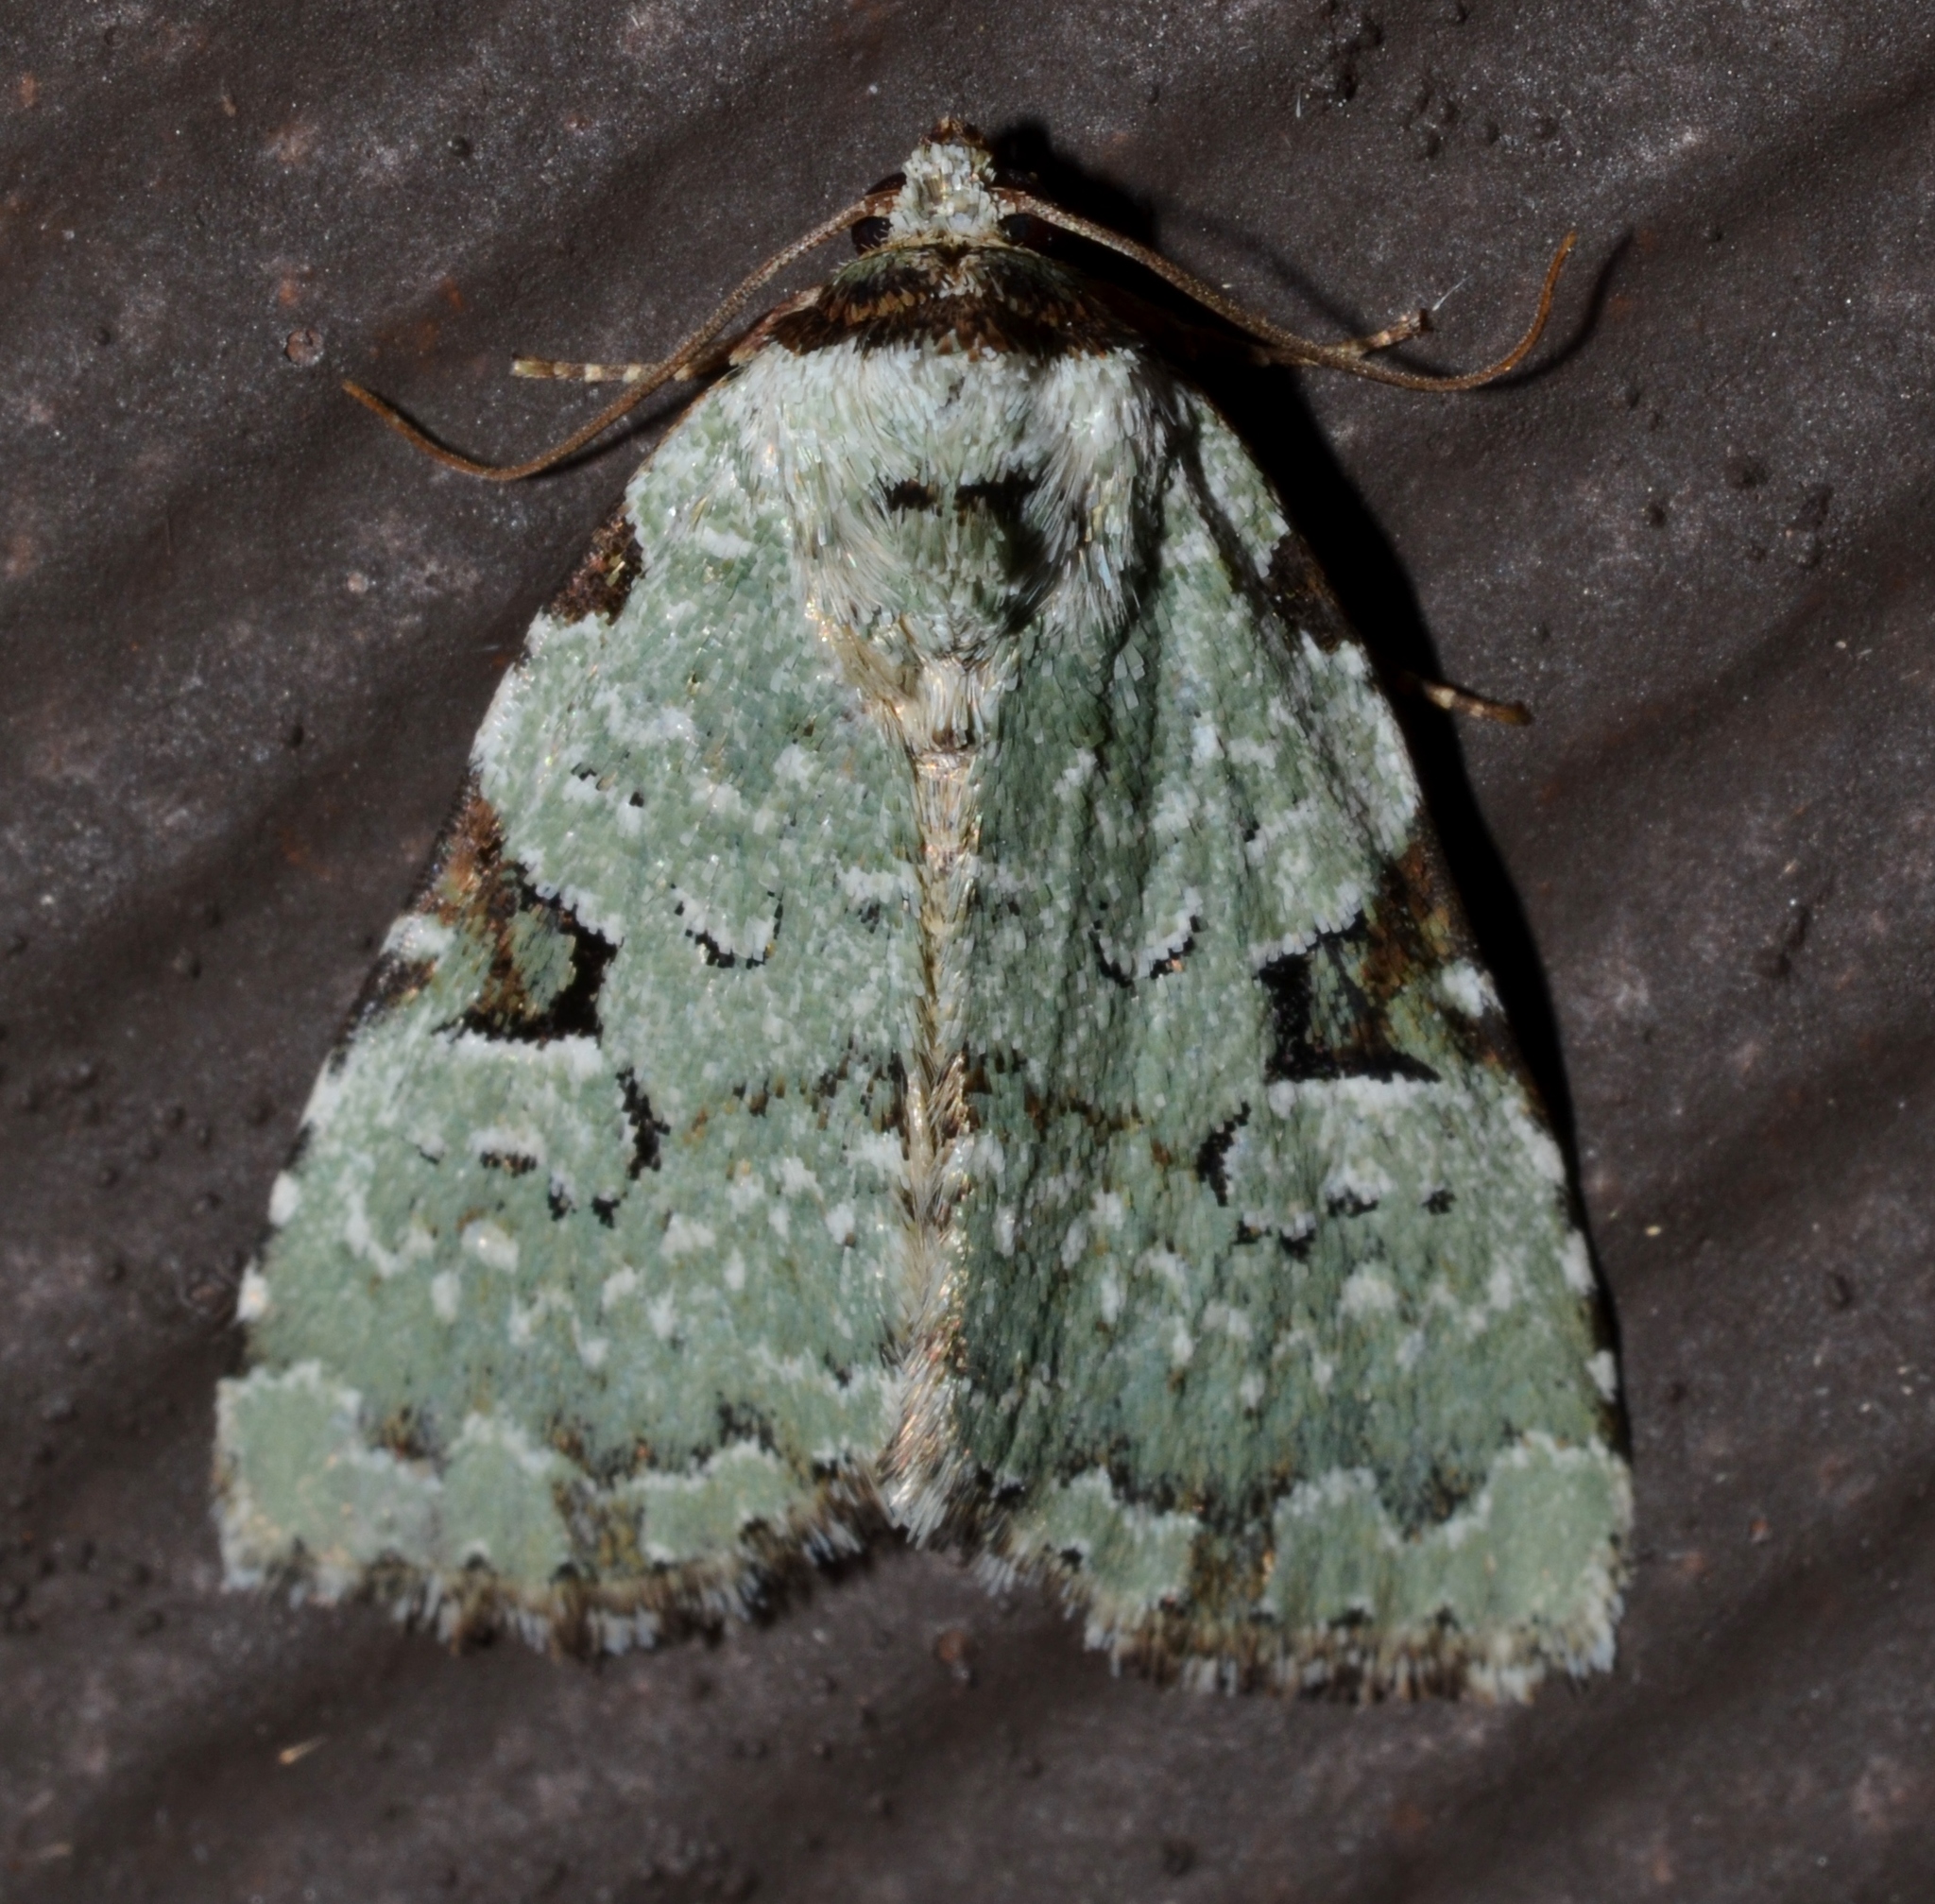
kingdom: Animalia
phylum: Arthropoda
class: Insecta
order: Lepidoptera
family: Noctuidae
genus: Leuconycta
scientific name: Leuconycta diphteroides
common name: Green leuconycta moth
